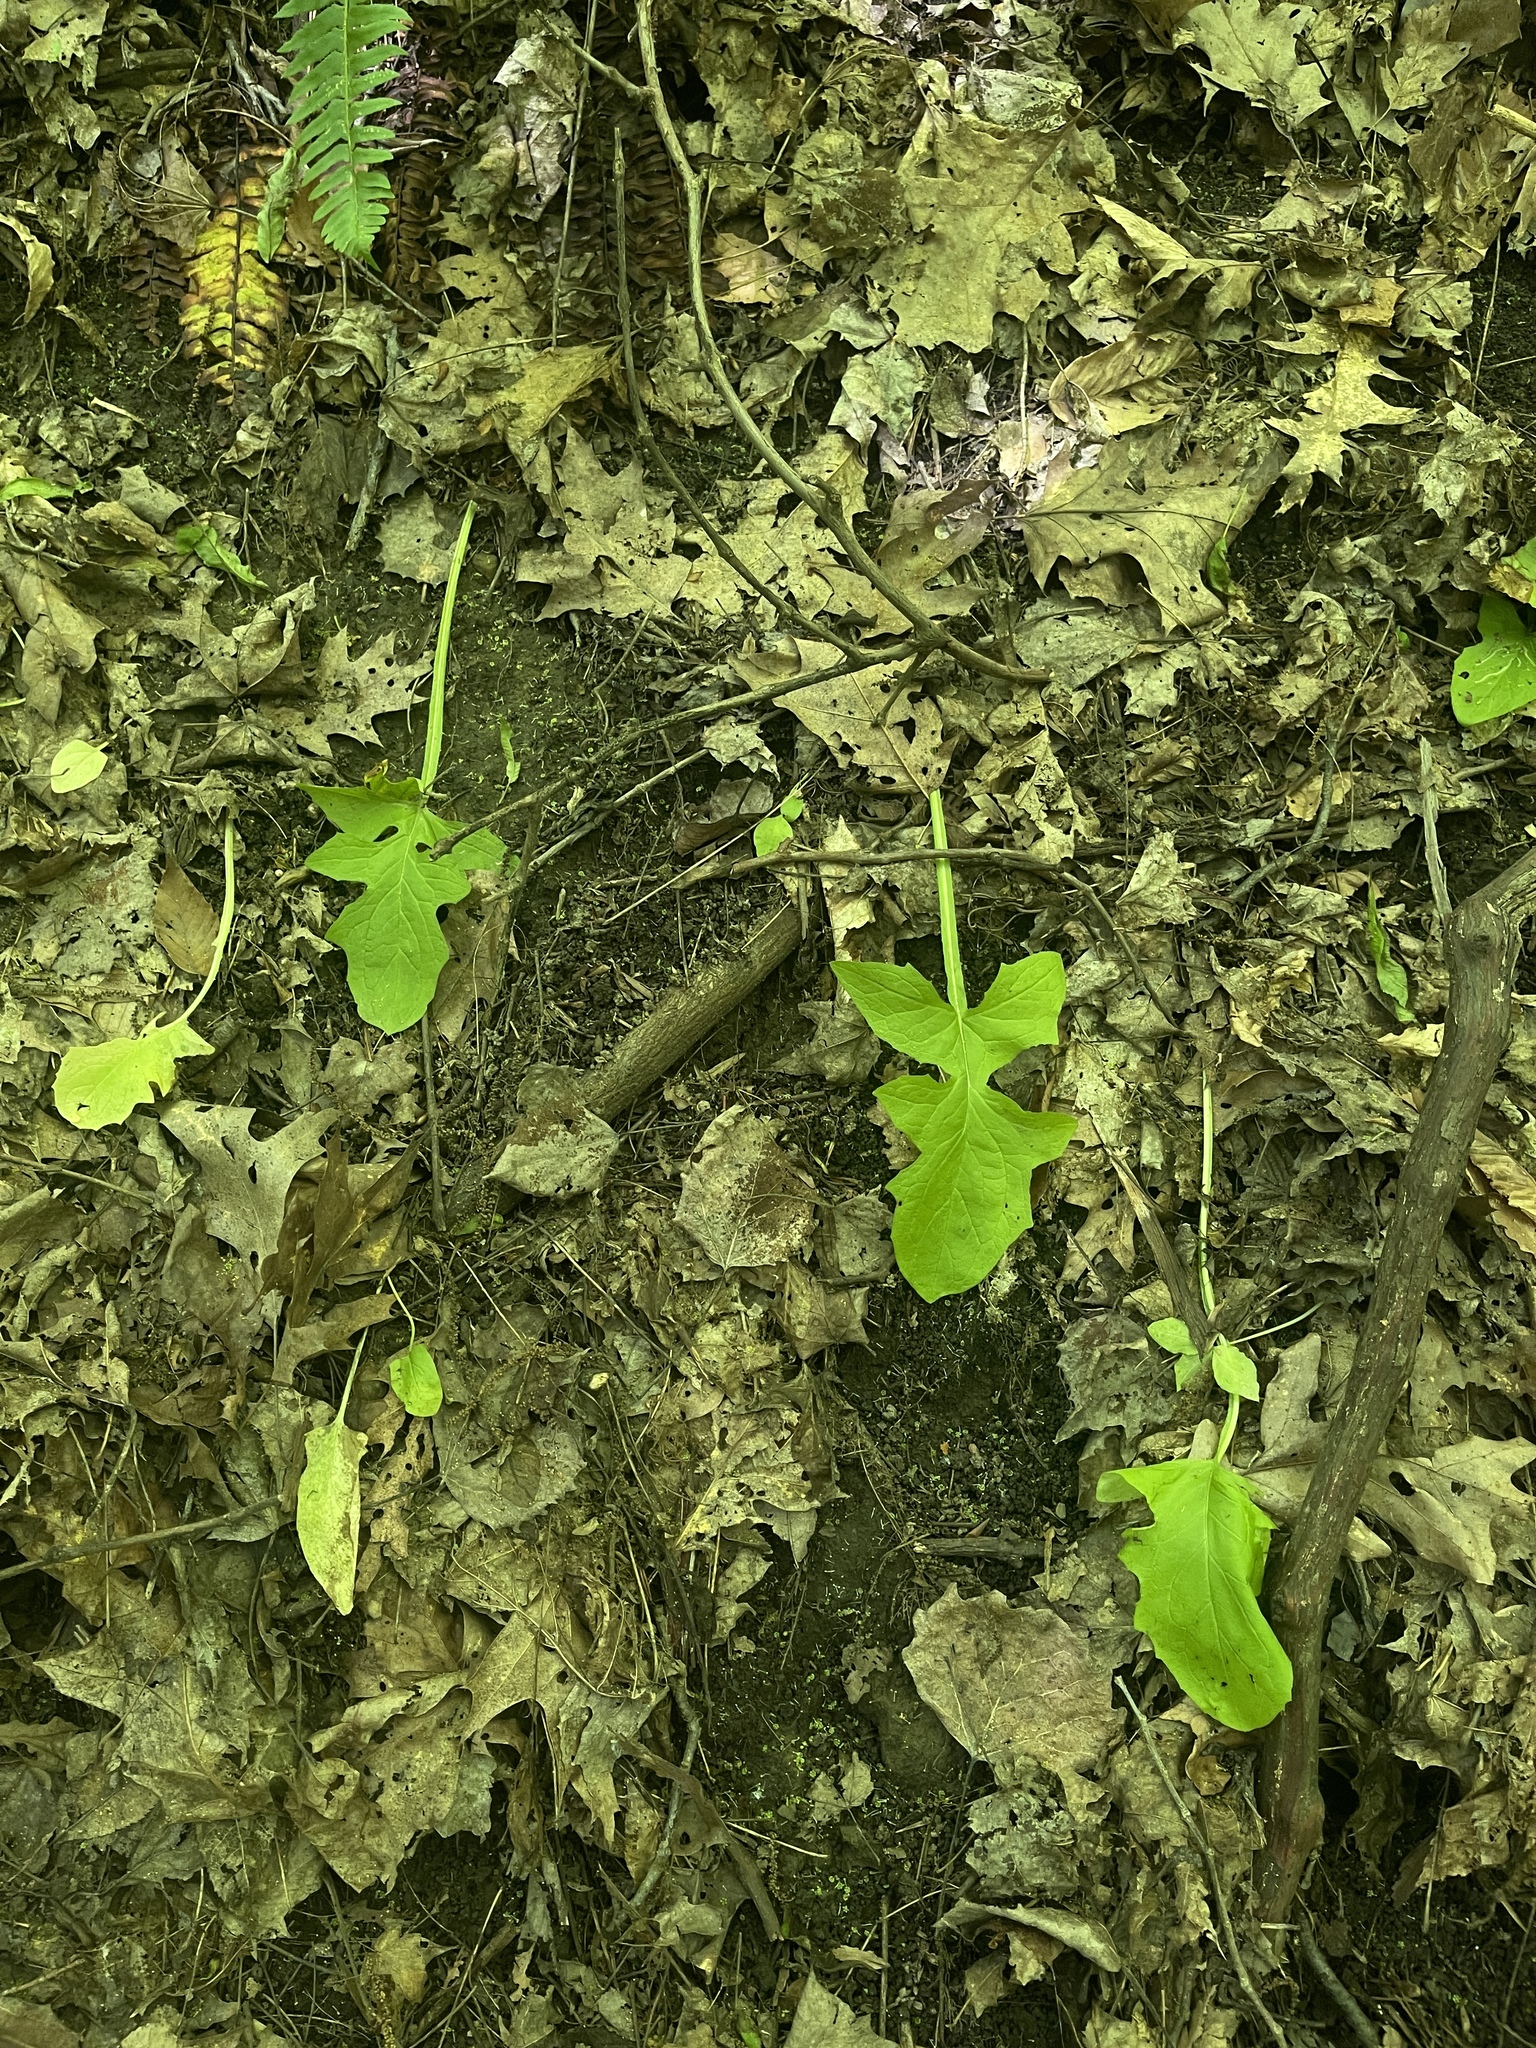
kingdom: Plantae
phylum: Tracheophyta
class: Magnoliopsida
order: Asterales
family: Asteraceae
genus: Nabalus
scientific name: Nabalus crepidineus
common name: Nodding rattlesnakeroot
